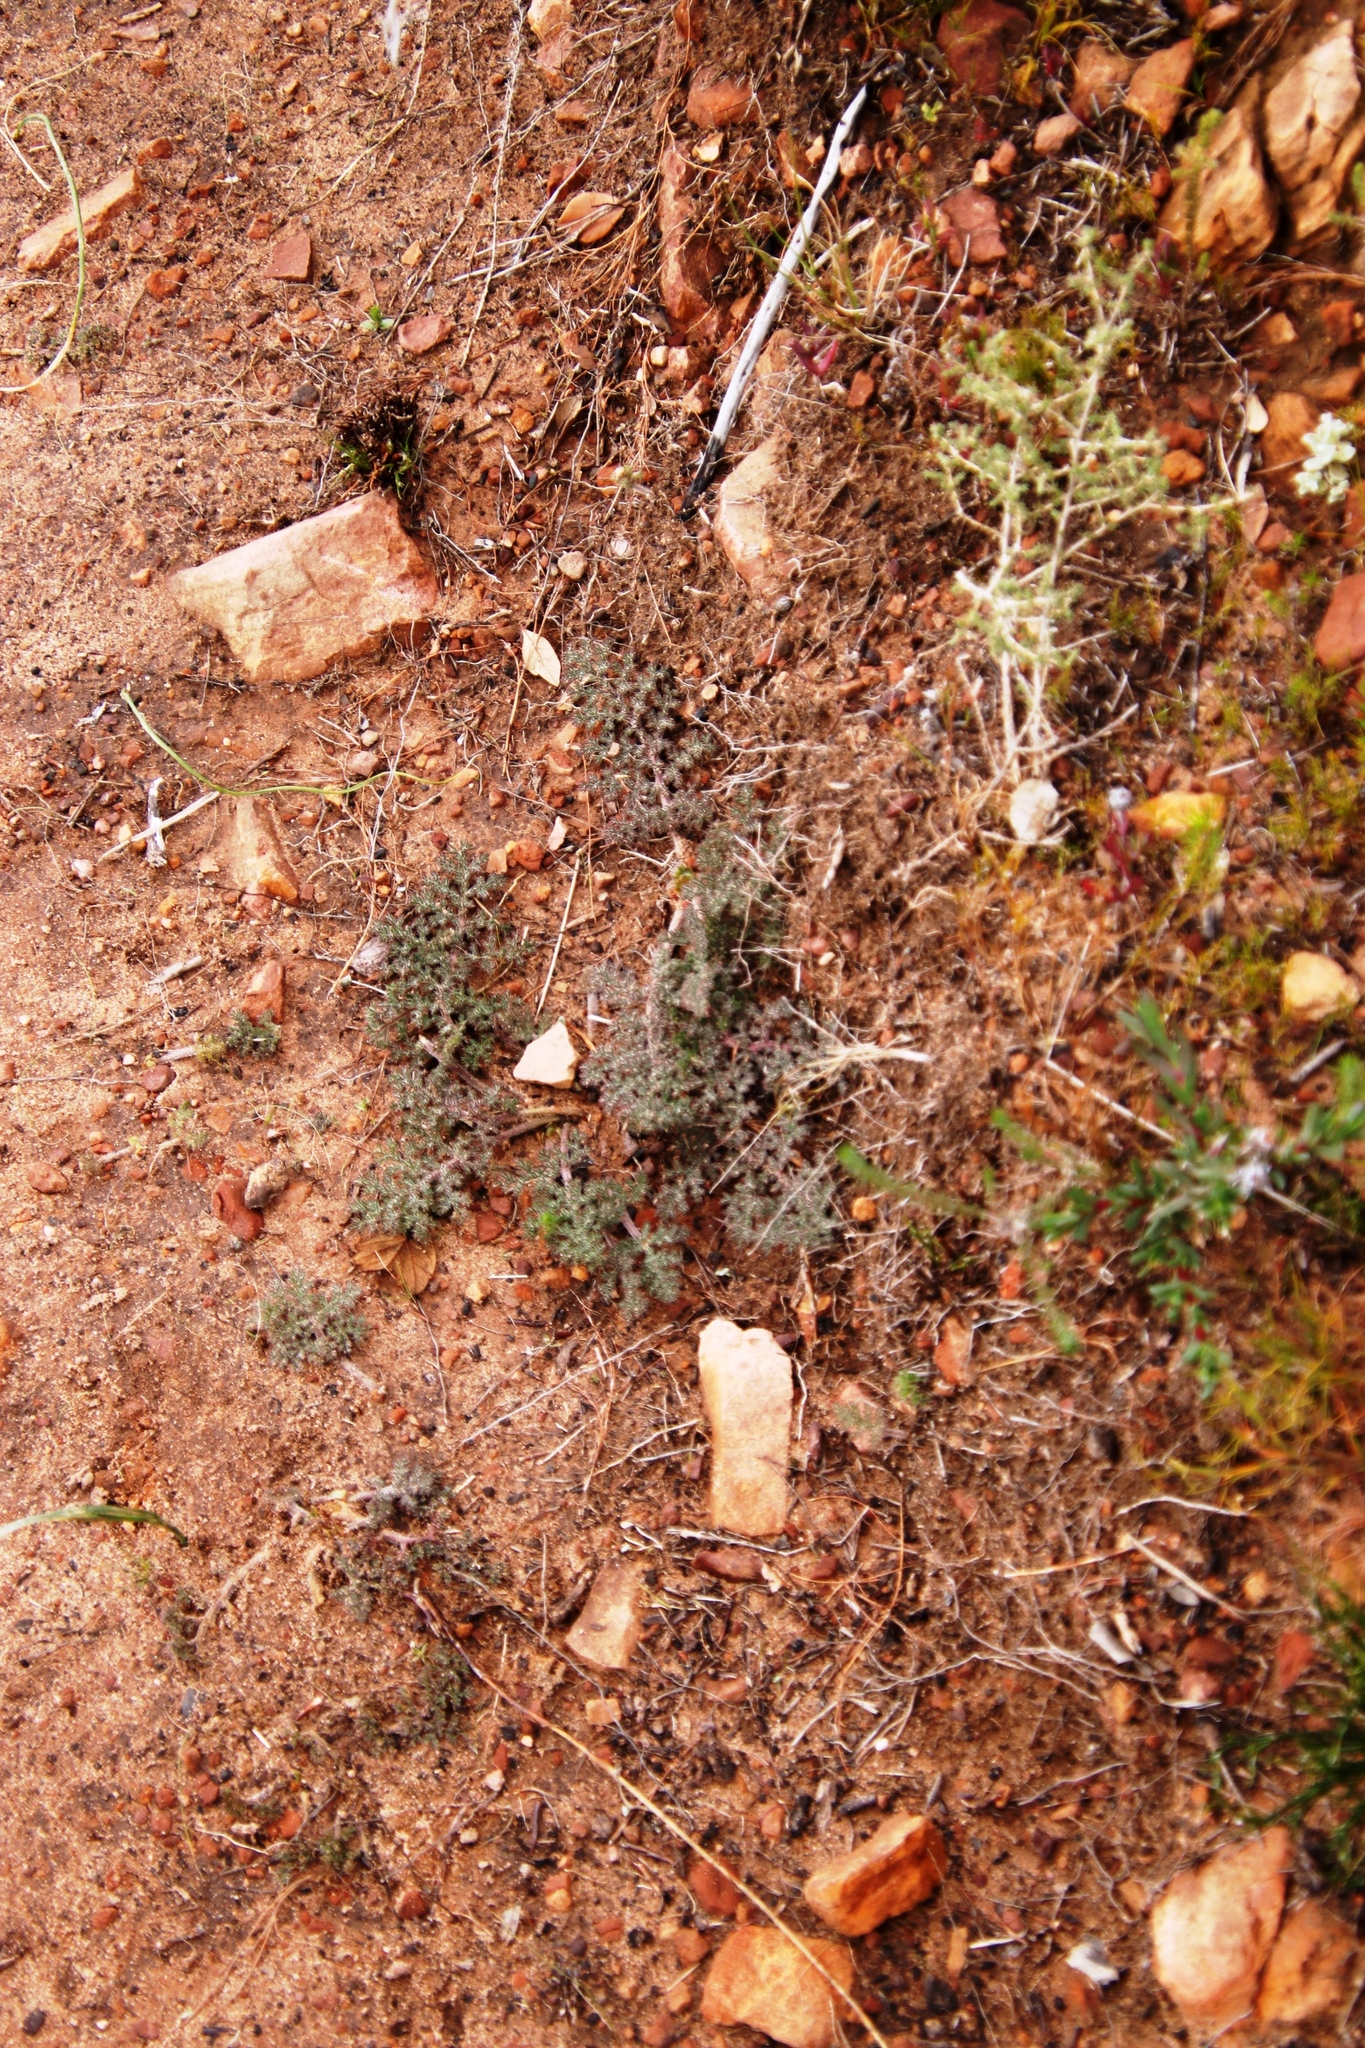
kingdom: Plantae
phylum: Tracheophyta
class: Magnoliopsida
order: Geraniales
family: Geraniaceae
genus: Pelargonium
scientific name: Pelargonium triste
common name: Night-scent pelargonium
